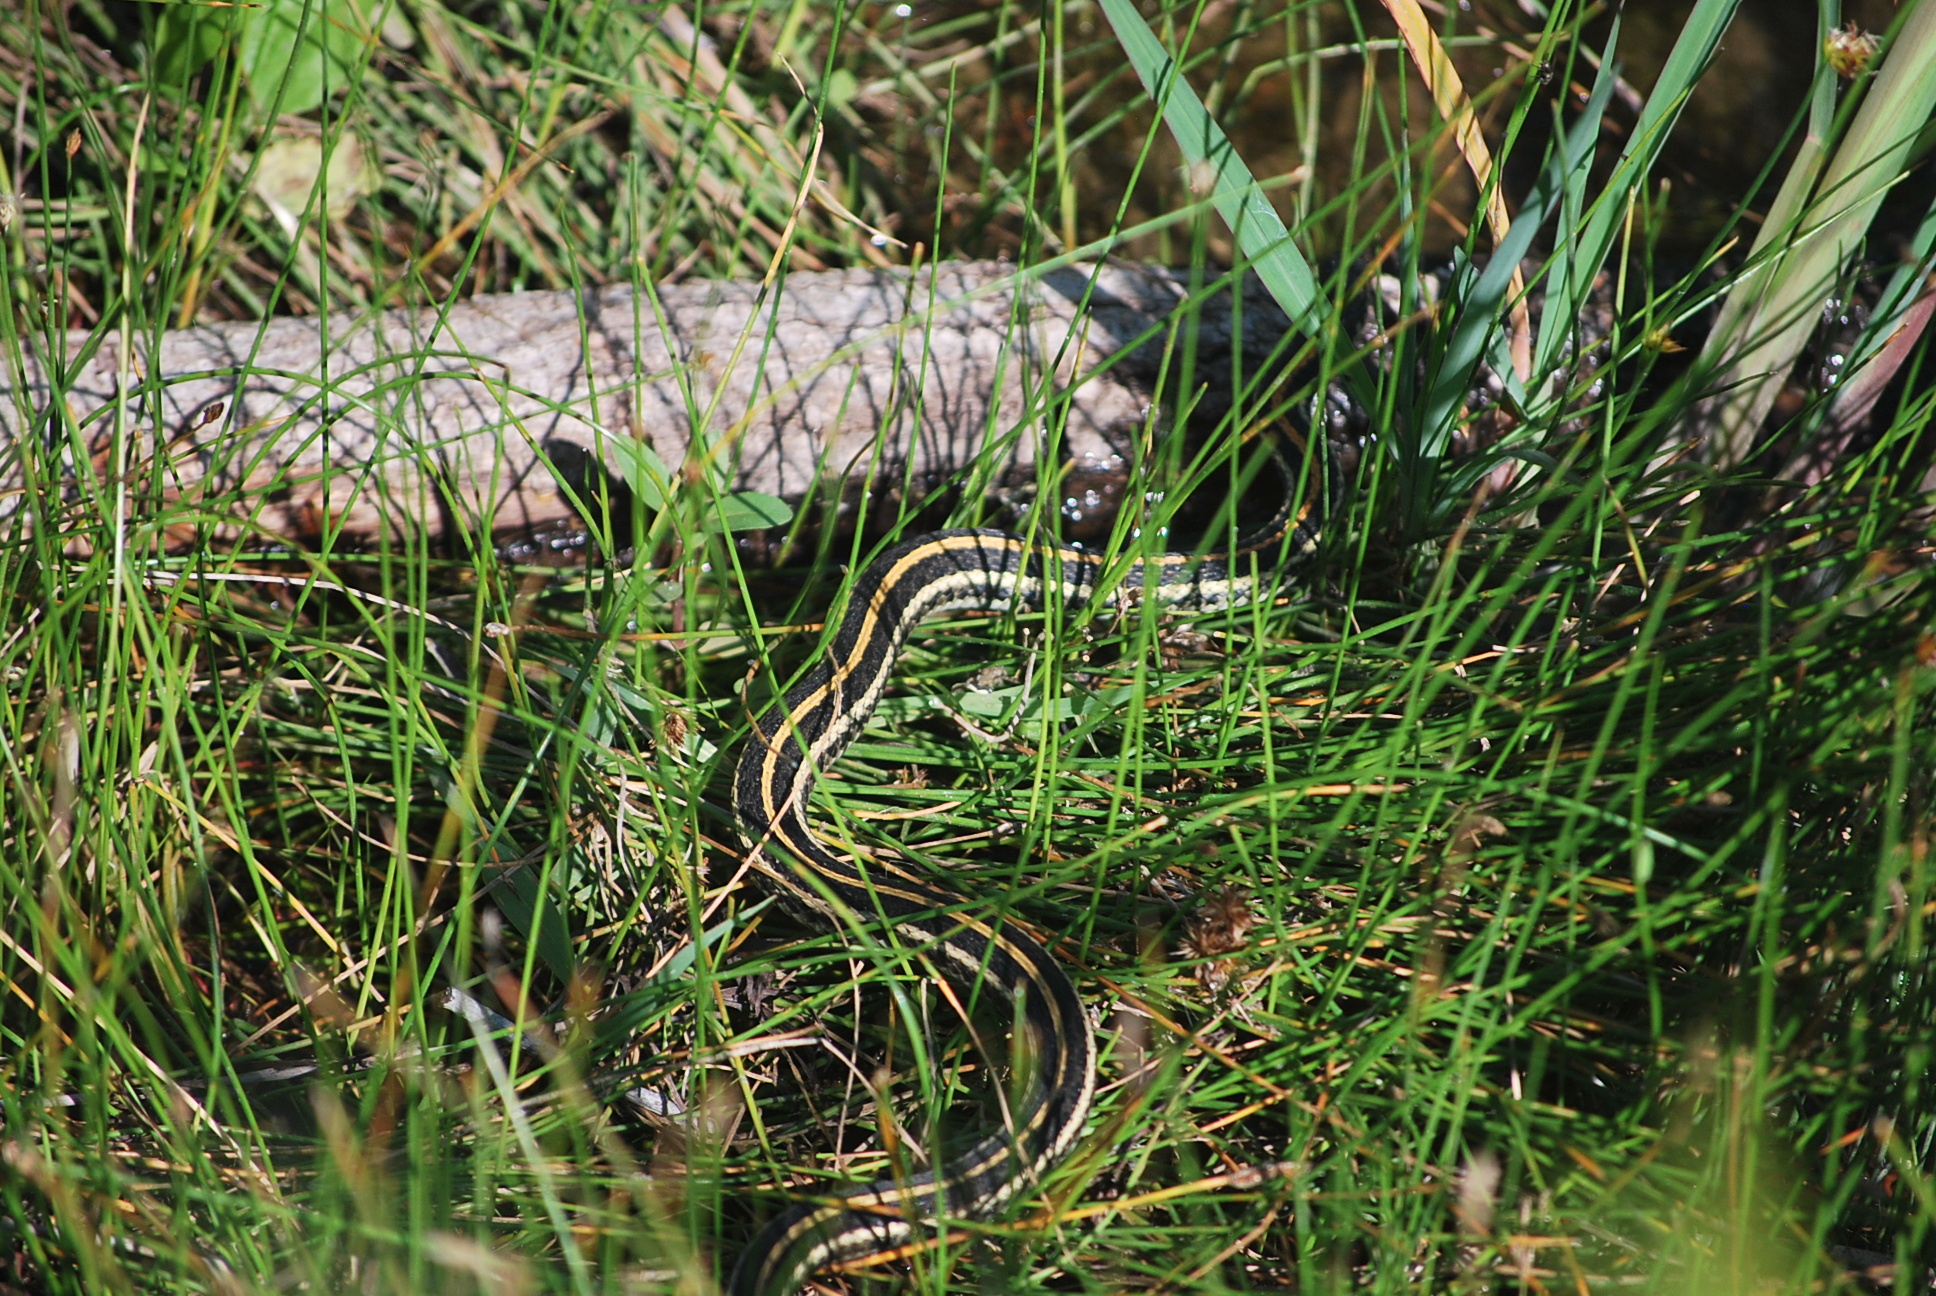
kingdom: Animalia
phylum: Chordata
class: Squamata
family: Colubridae
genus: Thamnophis
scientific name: Thamnophis radix
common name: Plains garter snake
